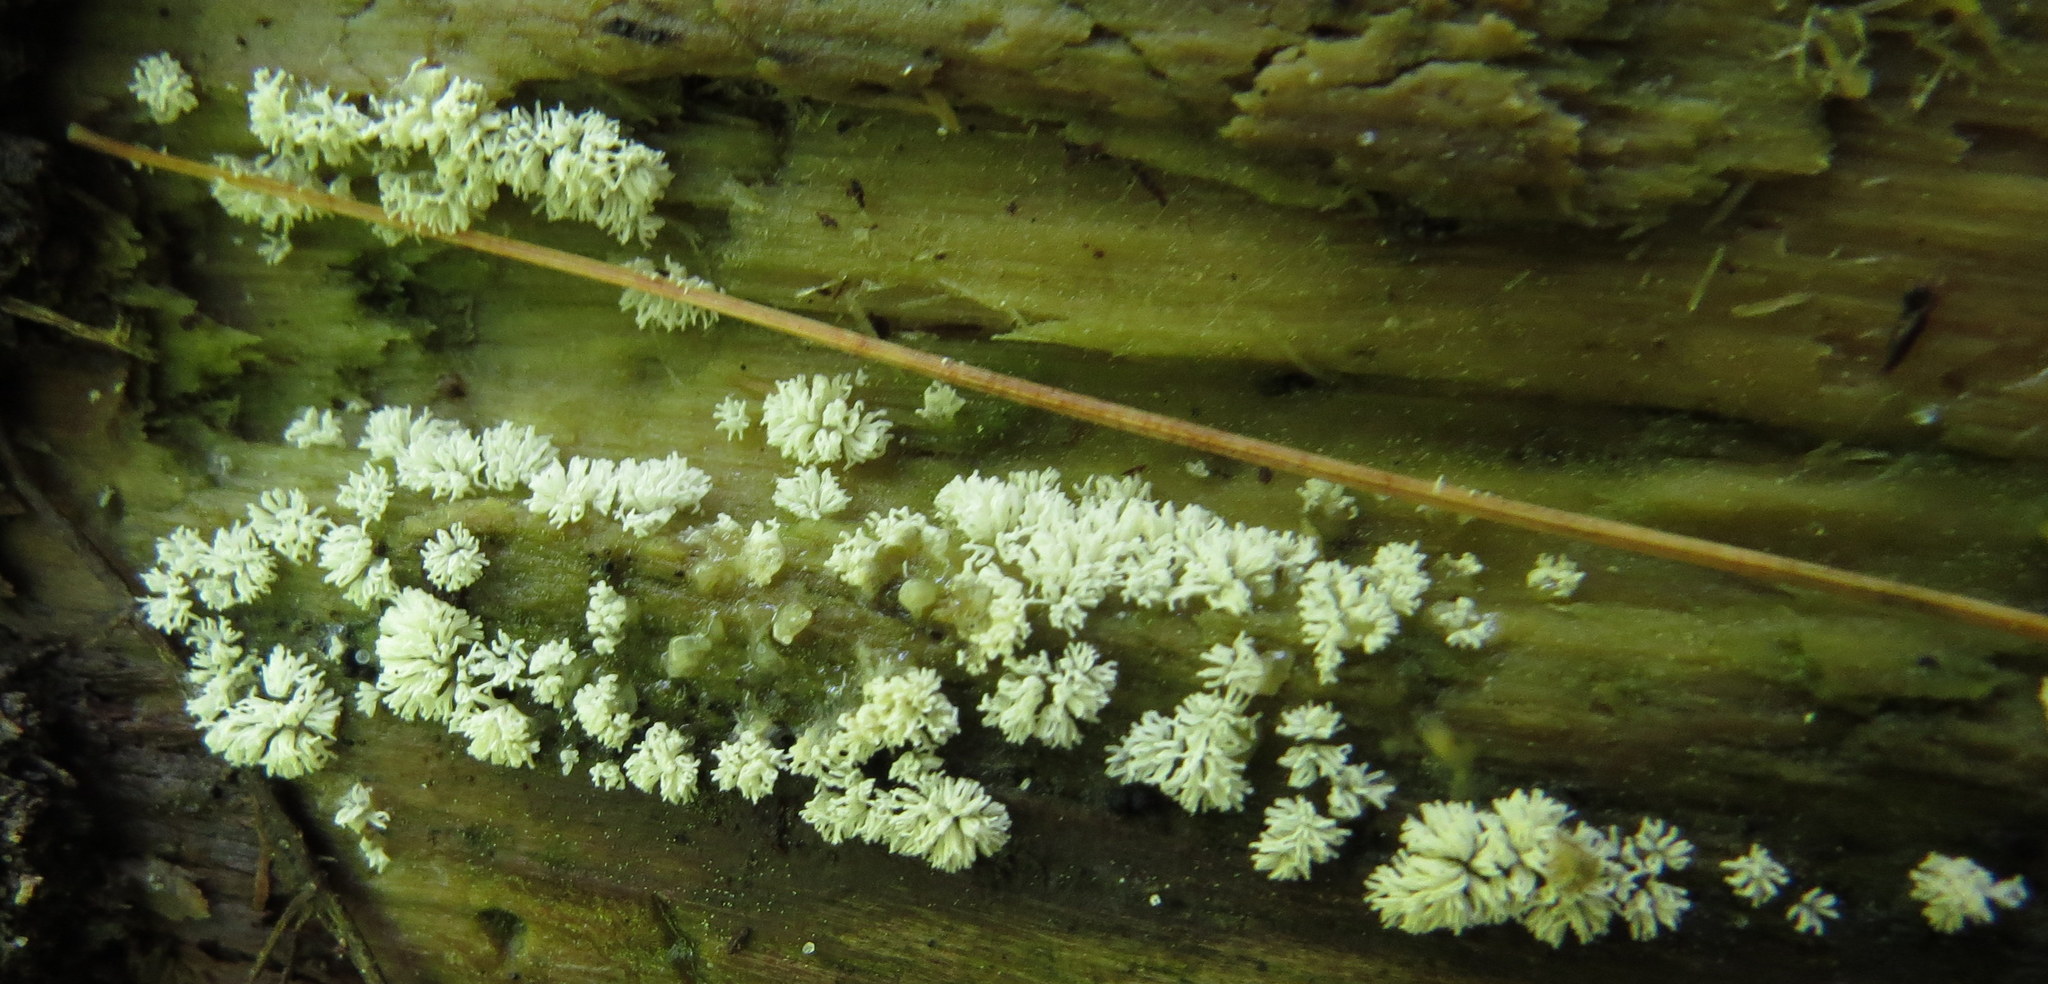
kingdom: Protozoa
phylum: Mycetozoa
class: Protosteliomycetes
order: Ceratiomyxales
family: Ceratiomyxaceae
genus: Ceratiomyxa
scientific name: Ceratiomyxa fruticulosa
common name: Honeycomb coral slime mold
